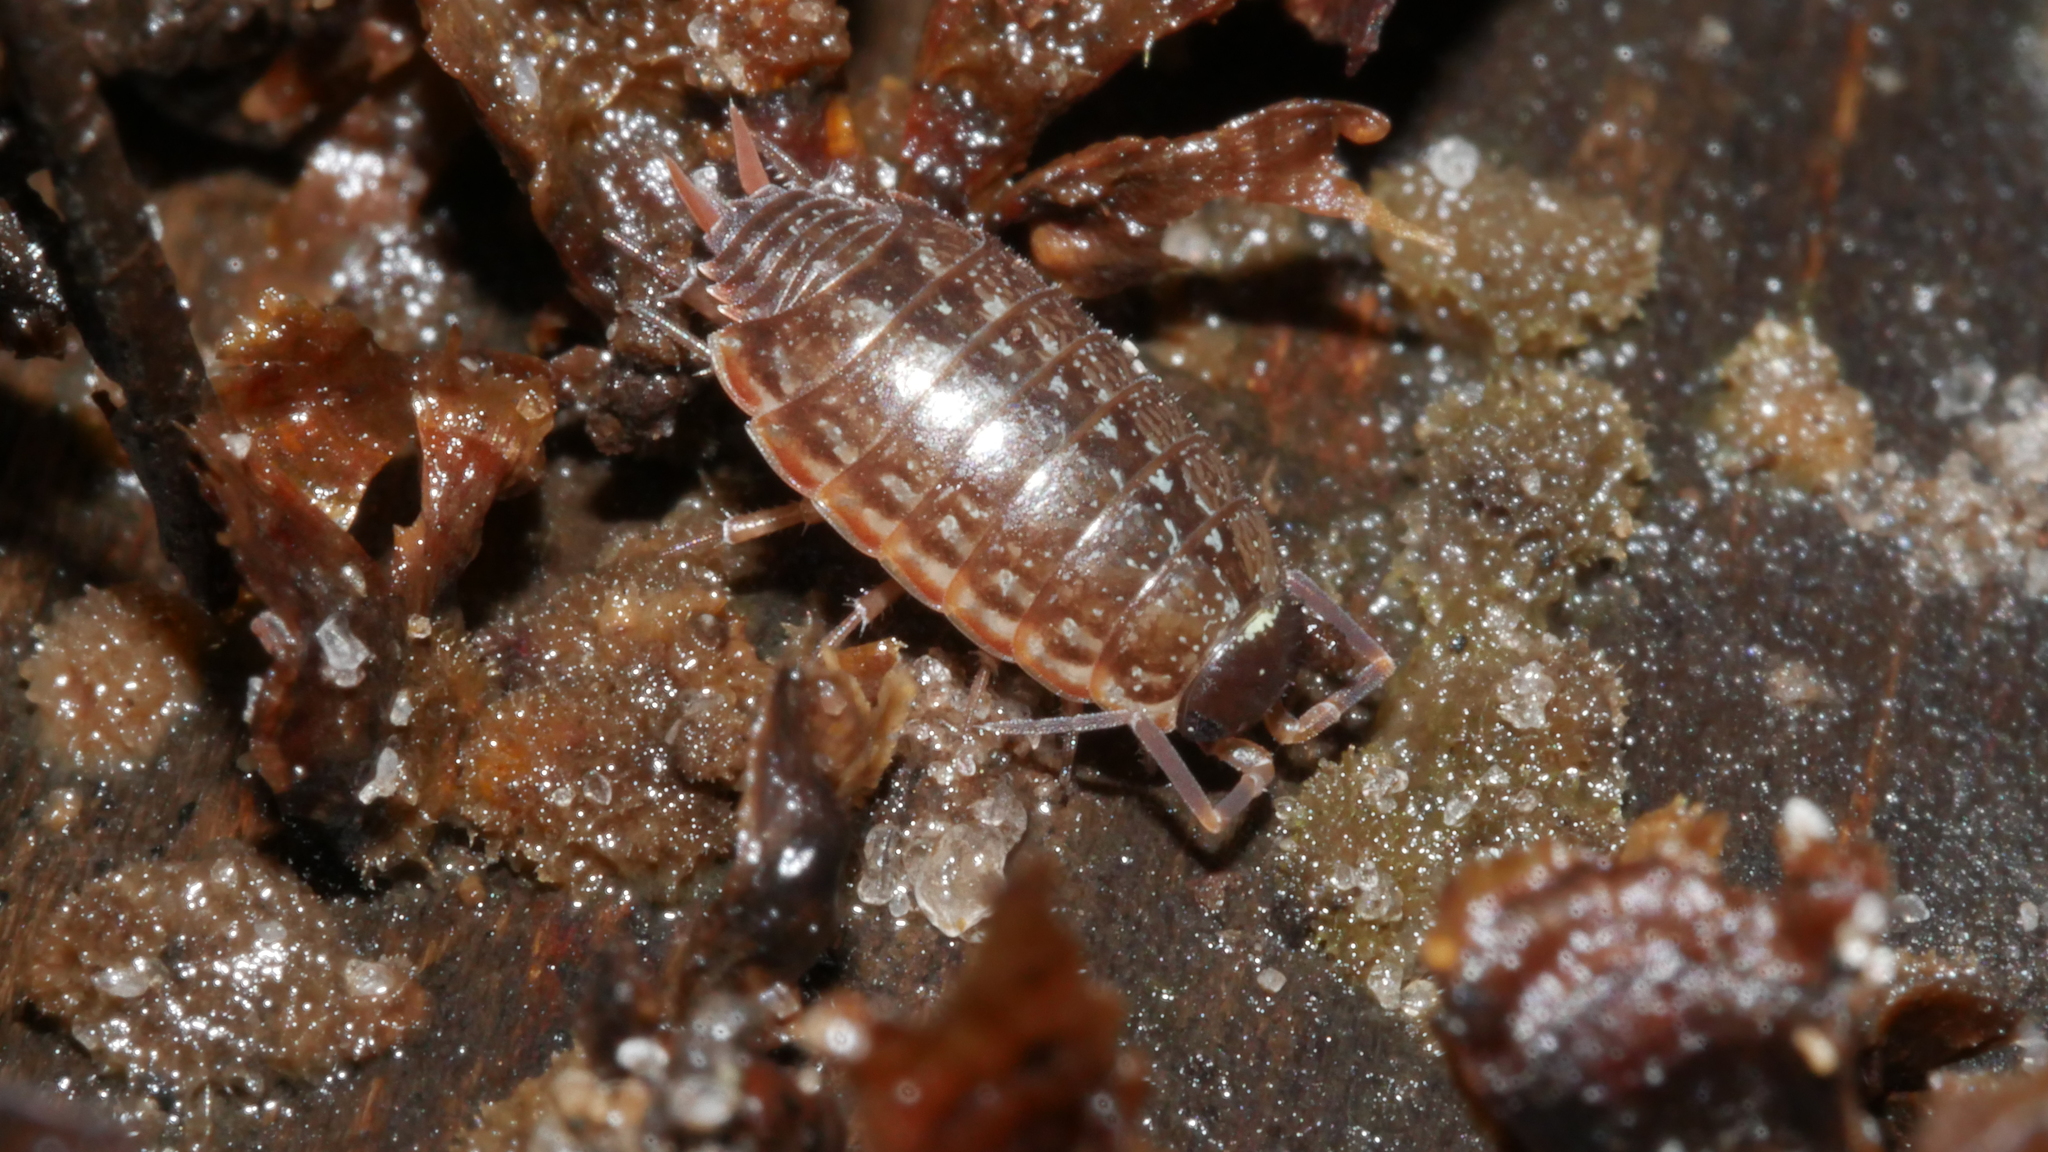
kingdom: Animalia
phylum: Arthropoda
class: Malacostraca
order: Isopoda
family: Philosciidae
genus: Philoscia
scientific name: Philoscia muscorum
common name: Common striped woodlouse
